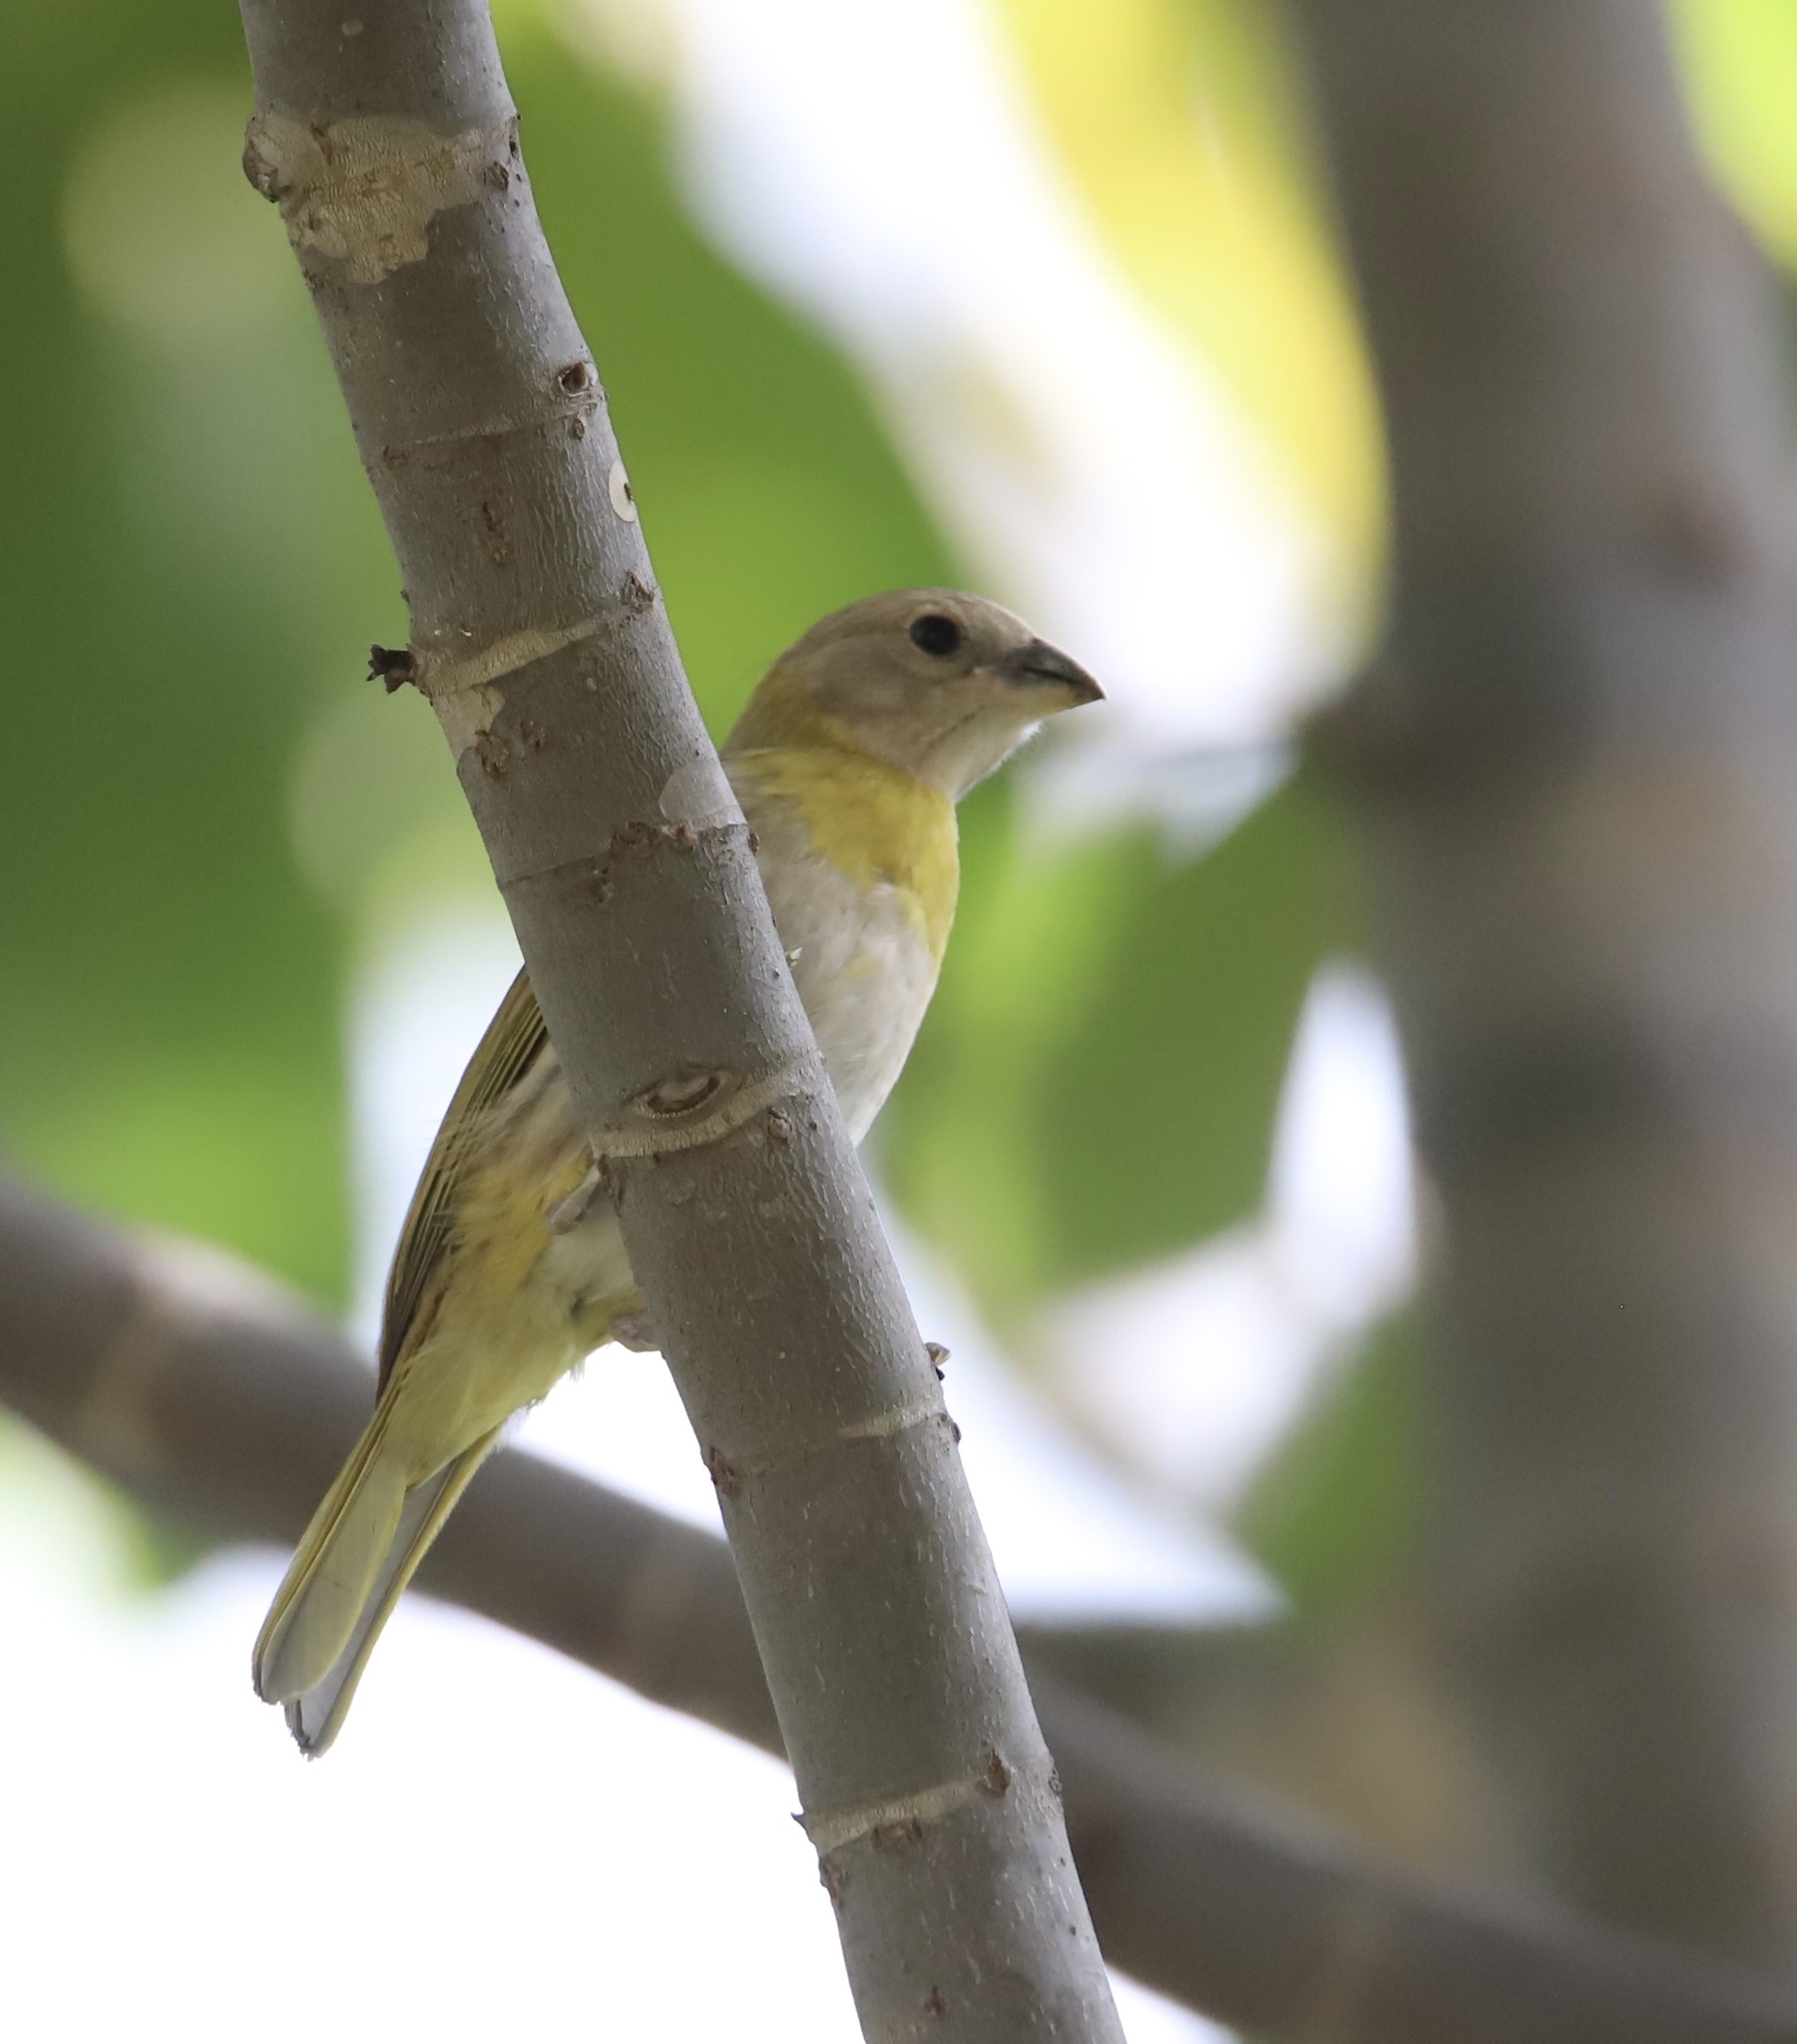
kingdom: Animalia
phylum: Chordata
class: Aves
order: Passeriformes
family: Thraupidae
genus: Sicalis
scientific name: Sicalis flaveola
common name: Saffron finch
